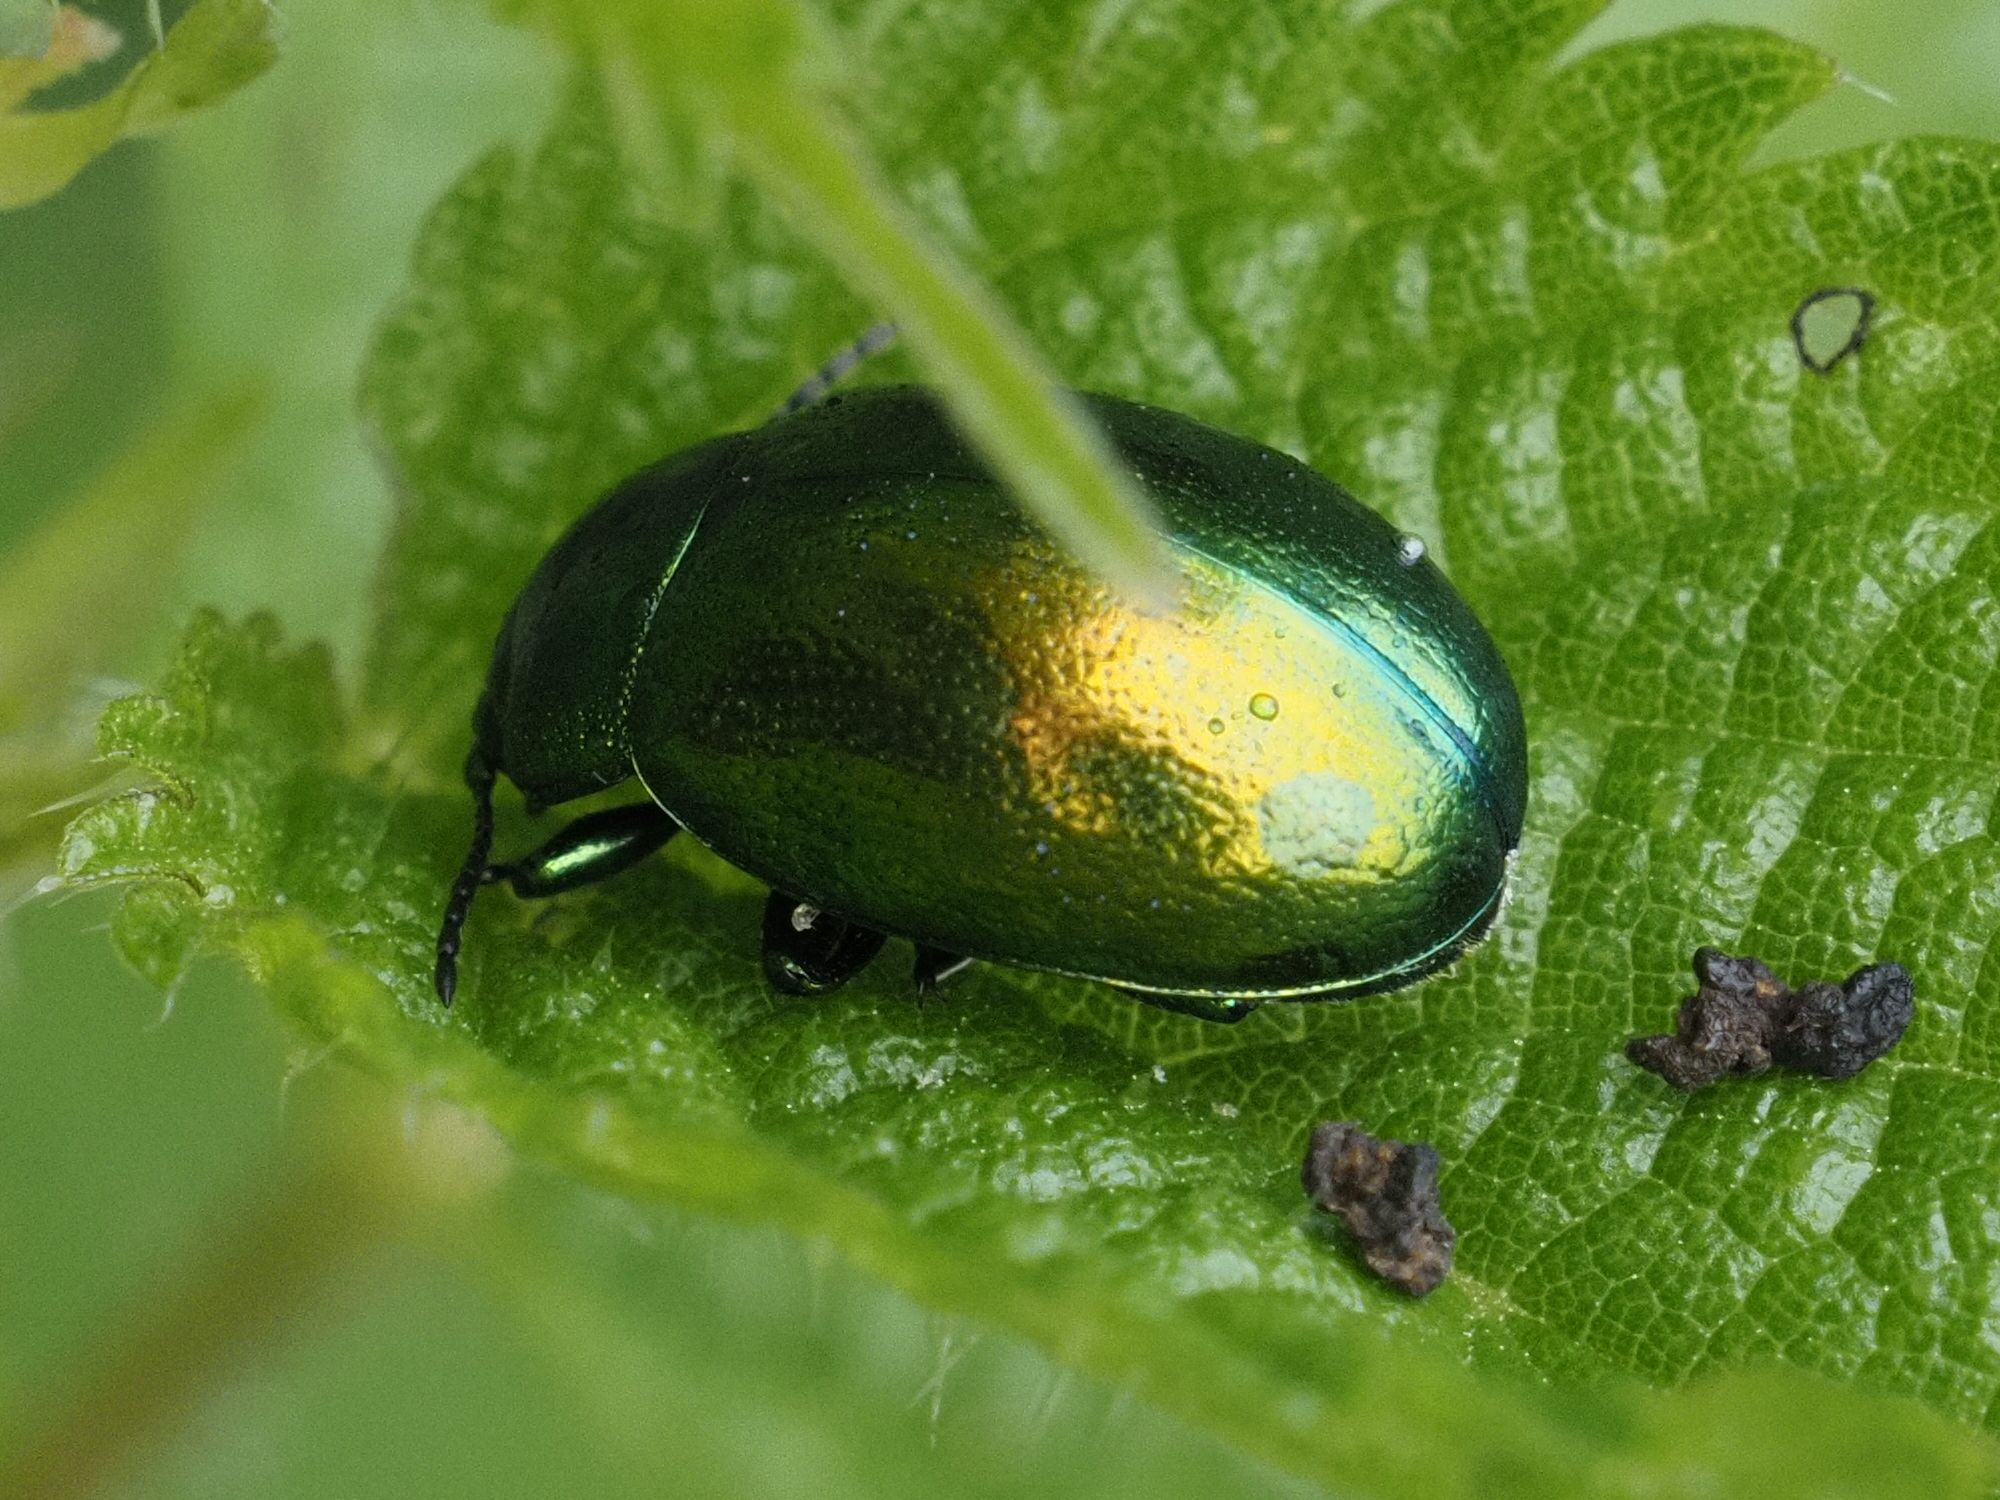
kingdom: Animalia
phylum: Arthropoda
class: Insecta
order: Coleoptera
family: Chrysomelidae
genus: Chrysolina
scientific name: Chrysolina herbacea
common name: Mint leaf beatle
